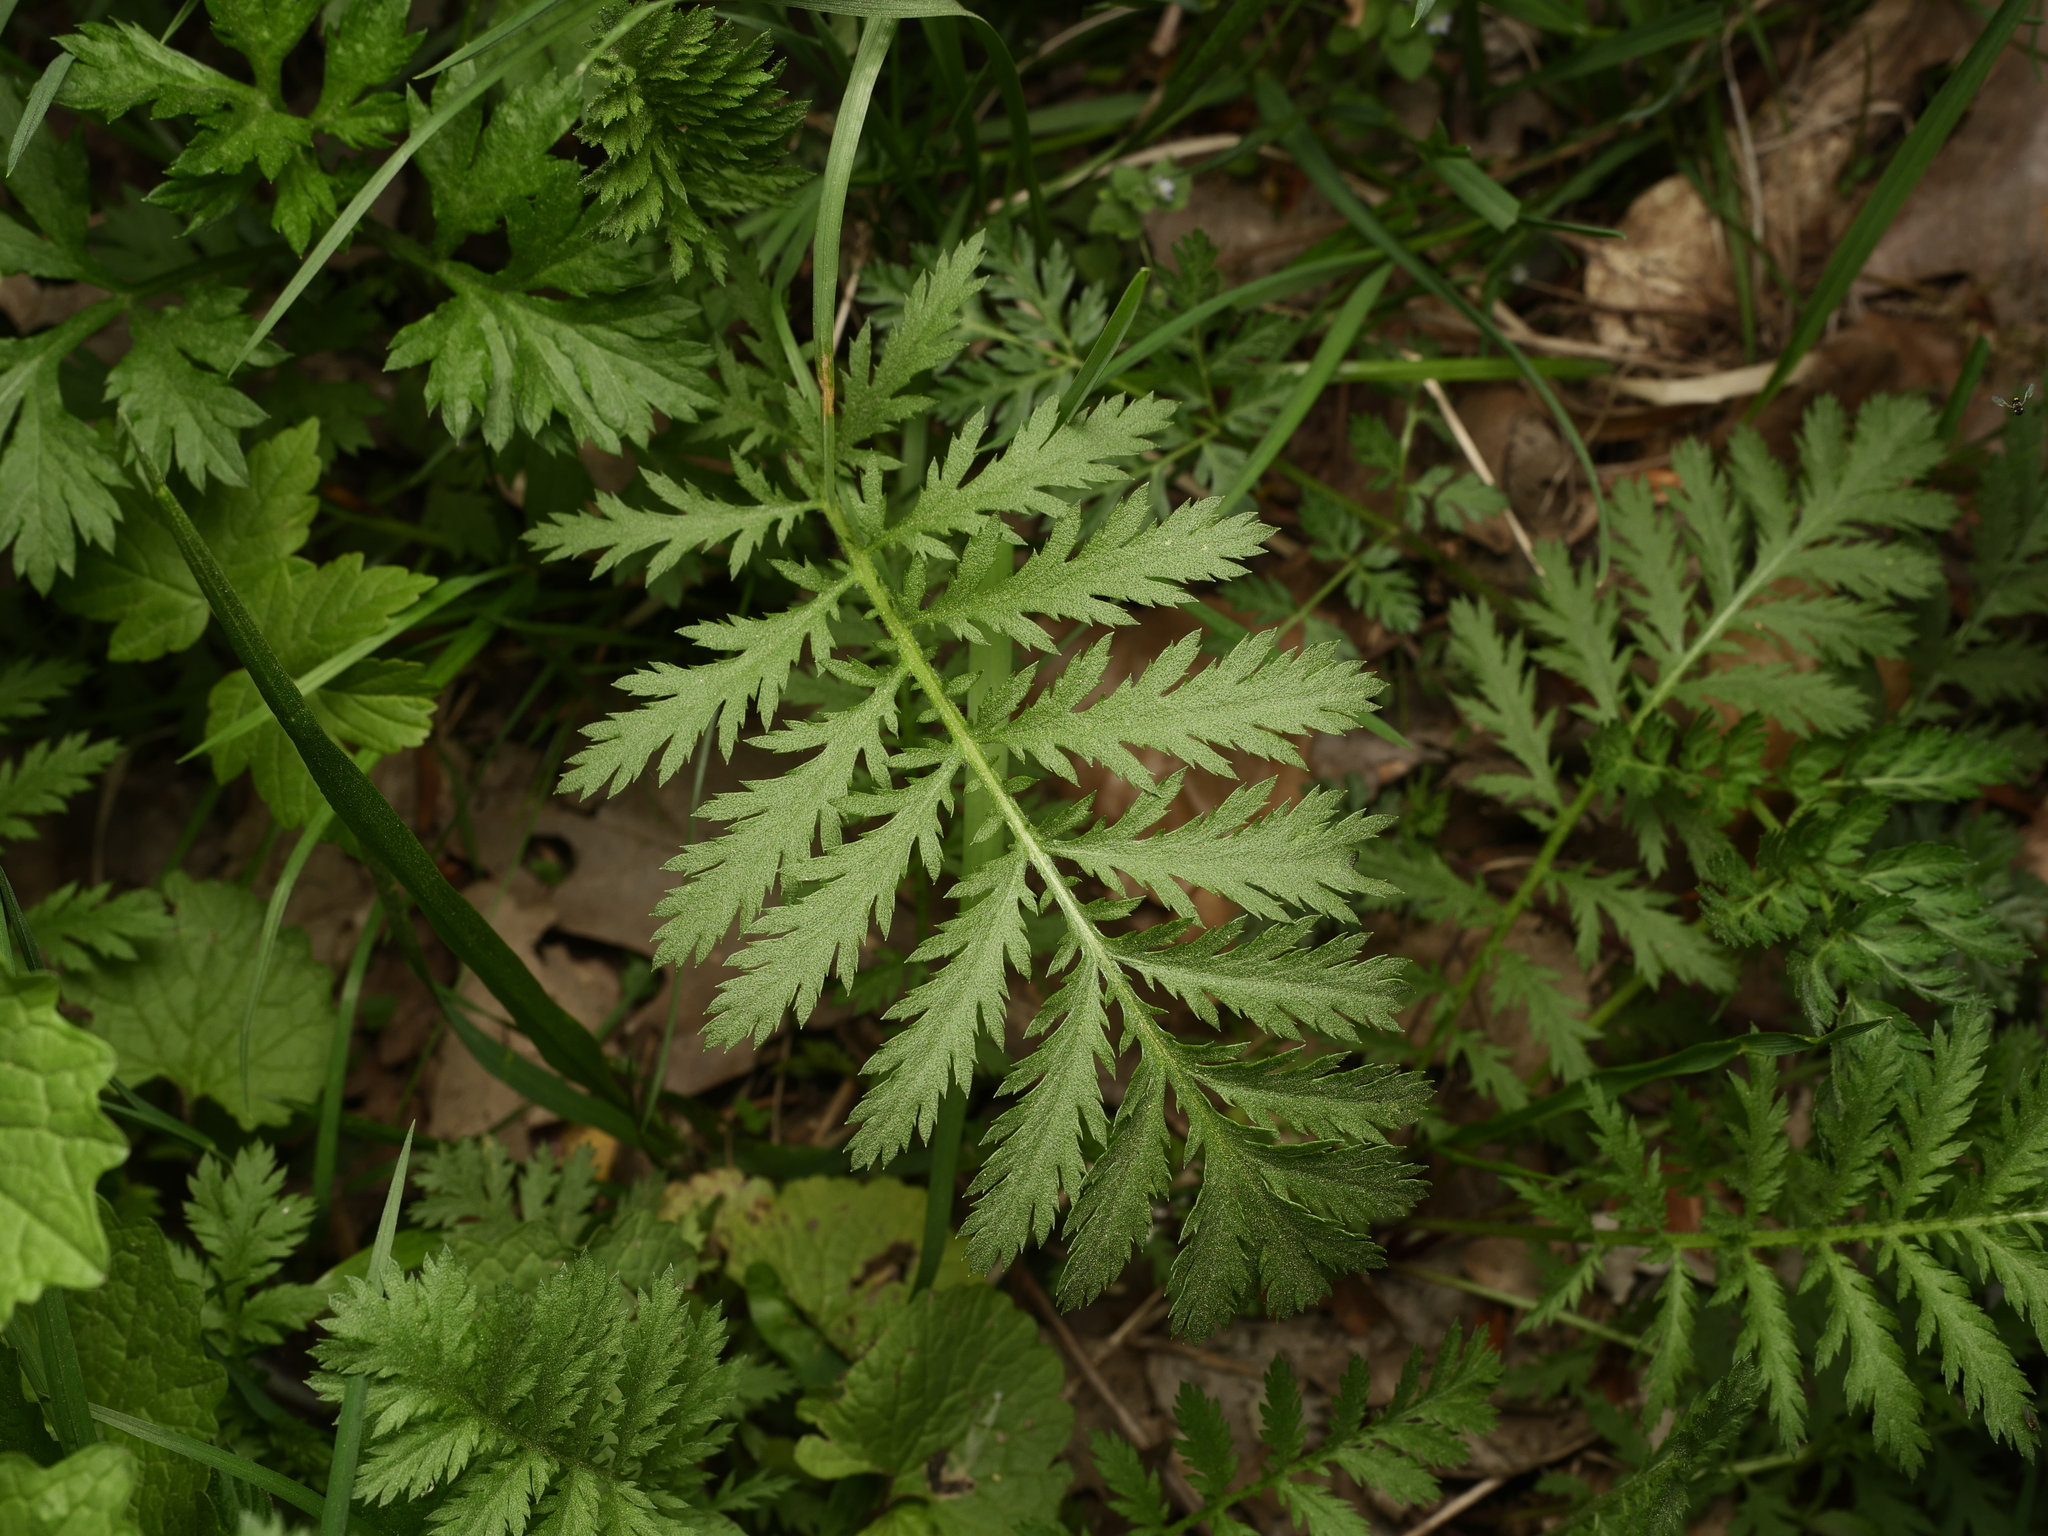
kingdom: Plantae
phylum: Tracheophyta
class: Magnoliopsida
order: Asterales
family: Asteraceae
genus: Tanacetum
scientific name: Tanacetum vulgare
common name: Common tansy
